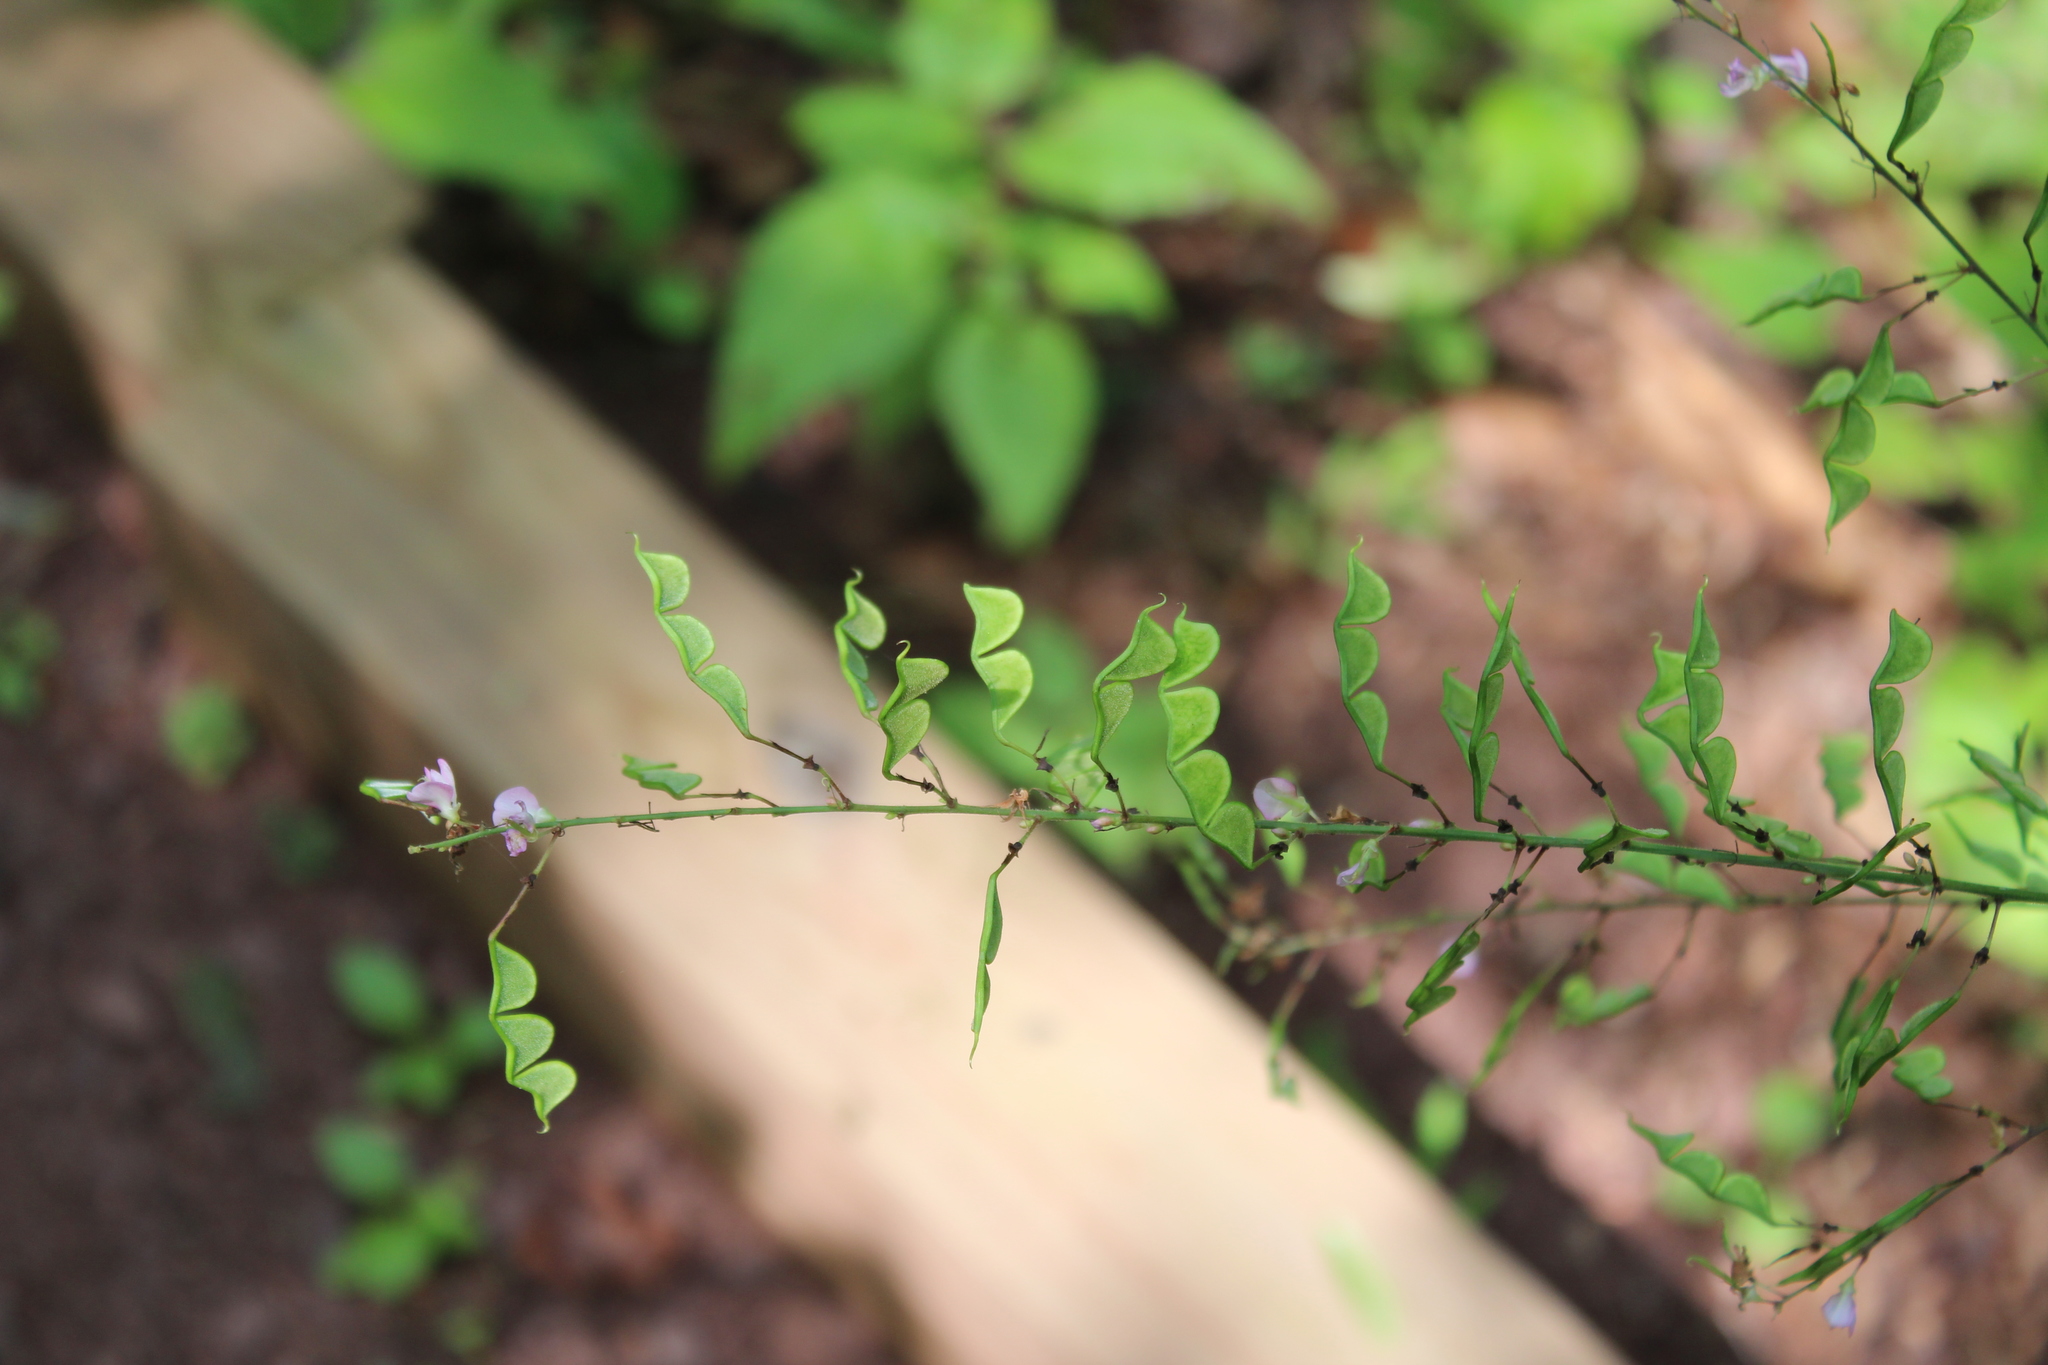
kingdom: Plantae
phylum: Tracheophyta
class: Magnoliopsida
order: Fabales
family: Fabaceae
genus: Hylodesmum
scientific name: Hylodesmum glutinosum
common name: Clustered-leaved tick-trefoil
